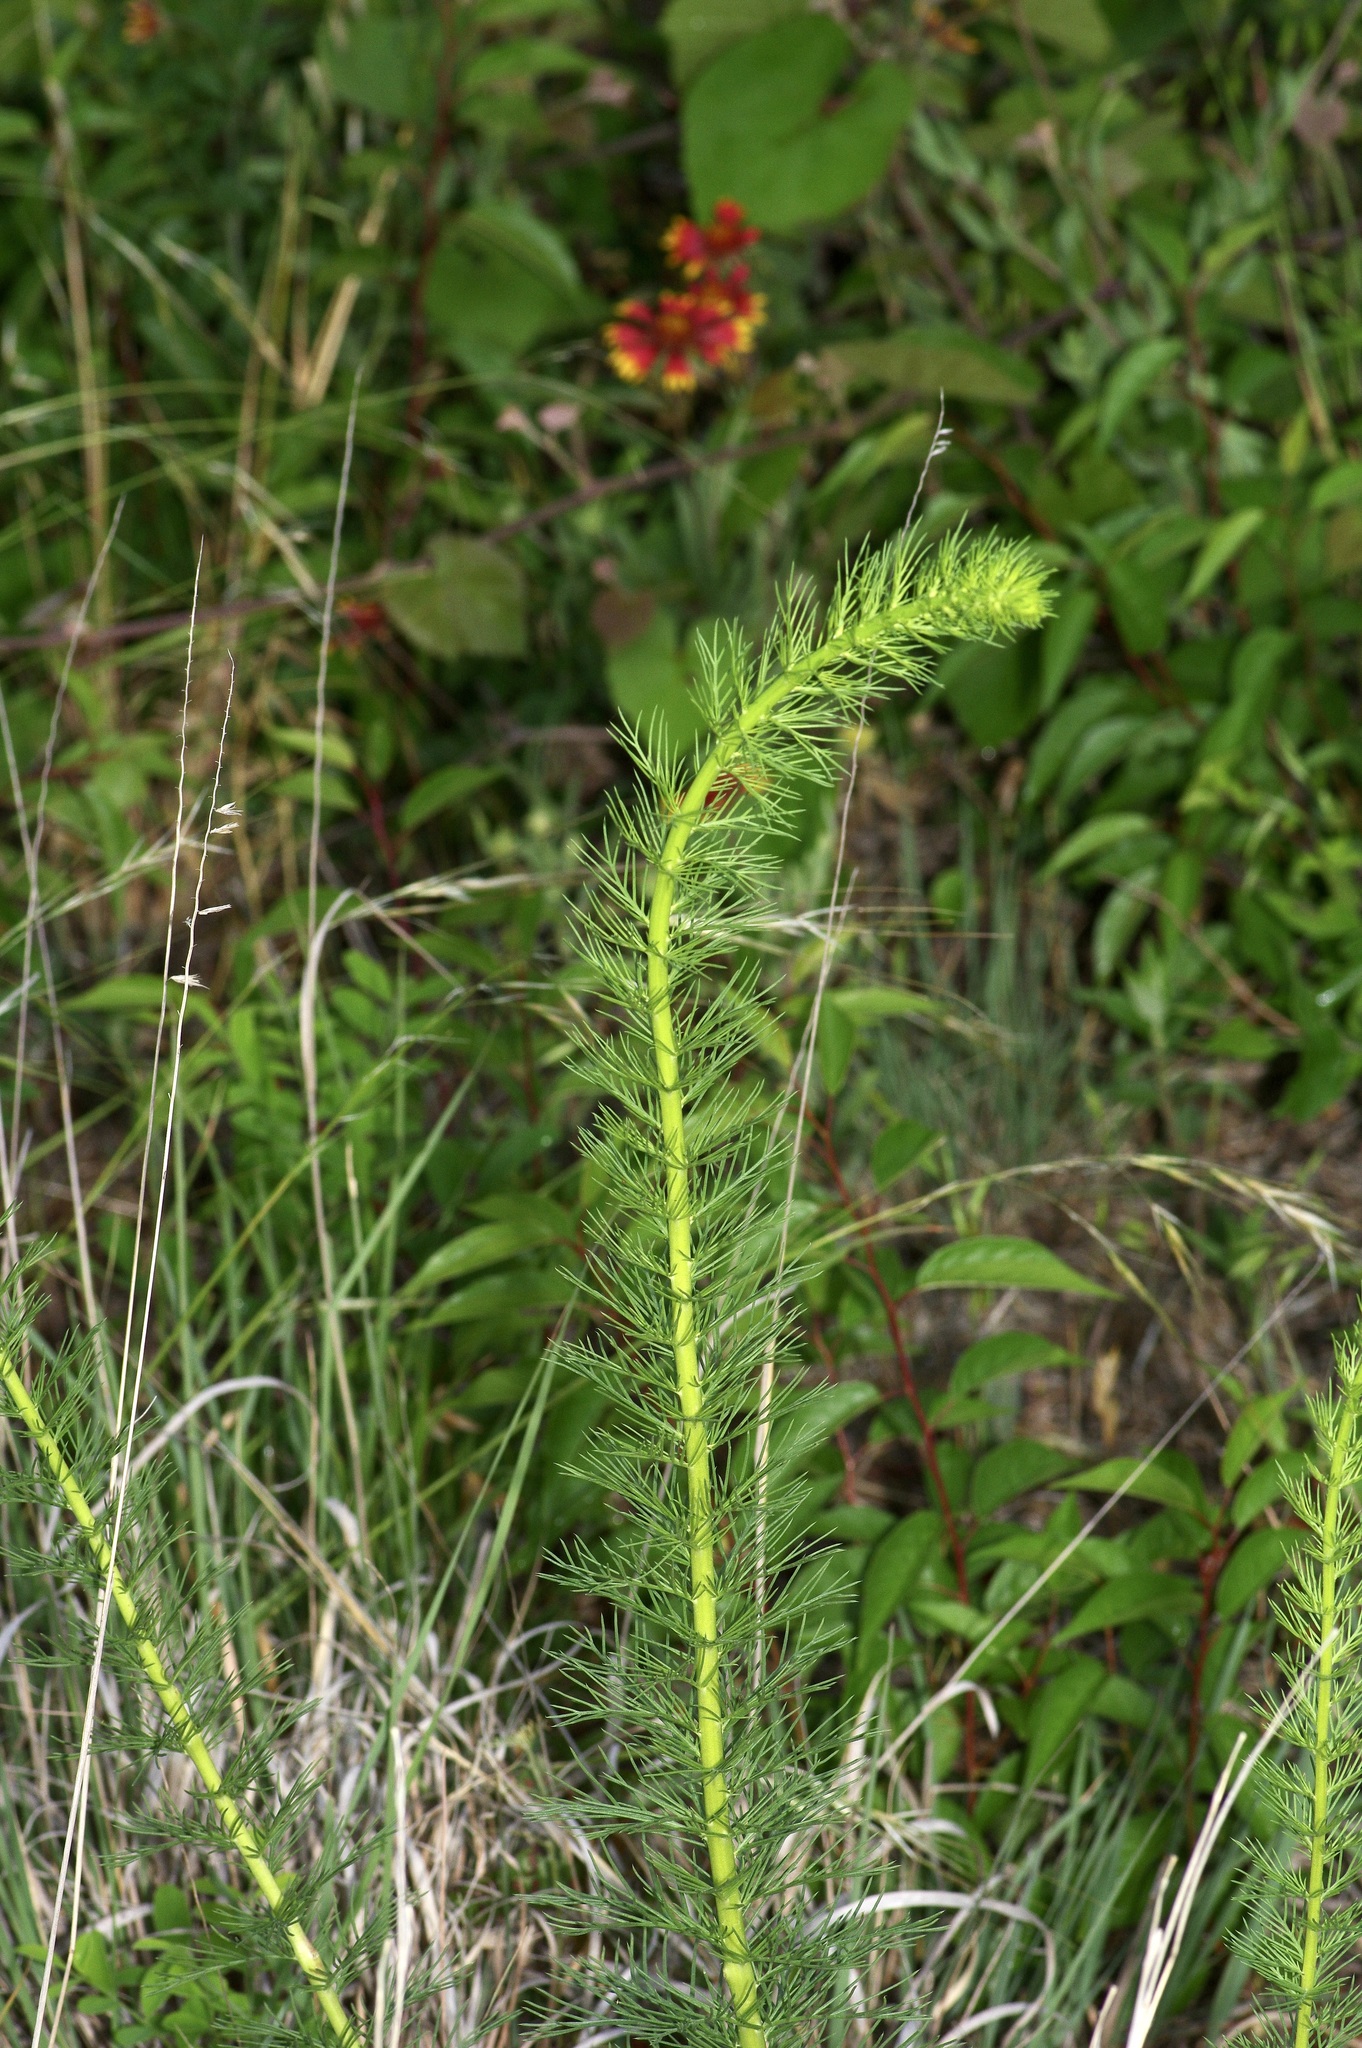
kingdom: Plantae
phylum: Tracheophyta
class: Magnoliopsida
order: Ericales
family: Polemoniaceae
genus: Ipomopsis
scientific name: Ipomopsis rubra
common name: Skyrocket
